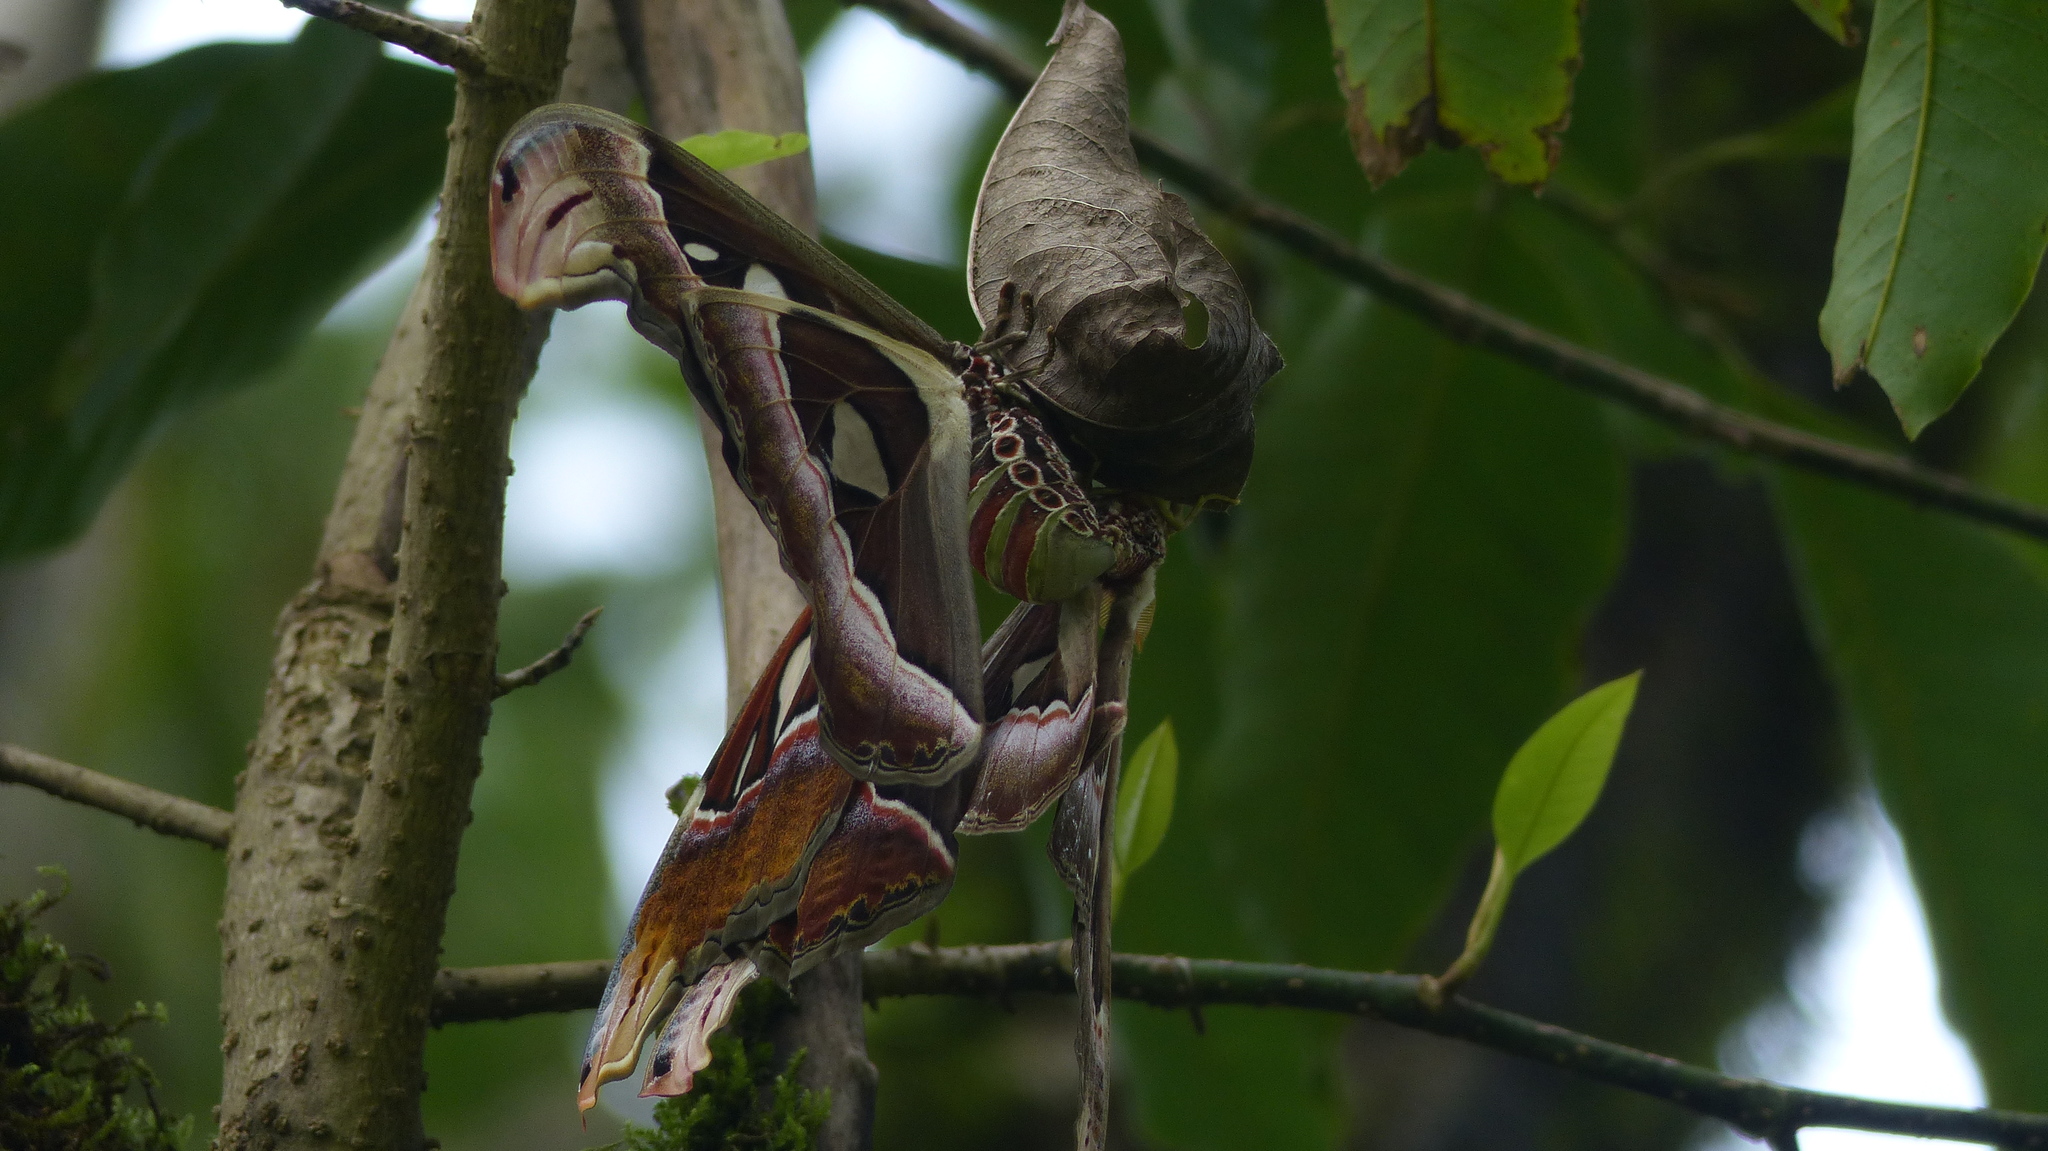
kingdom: Animalia
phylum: Arthropoda
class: Insecta
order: Lepidoptera
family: Saturniidae
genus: Attacus
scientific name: Attacus taprobanis
